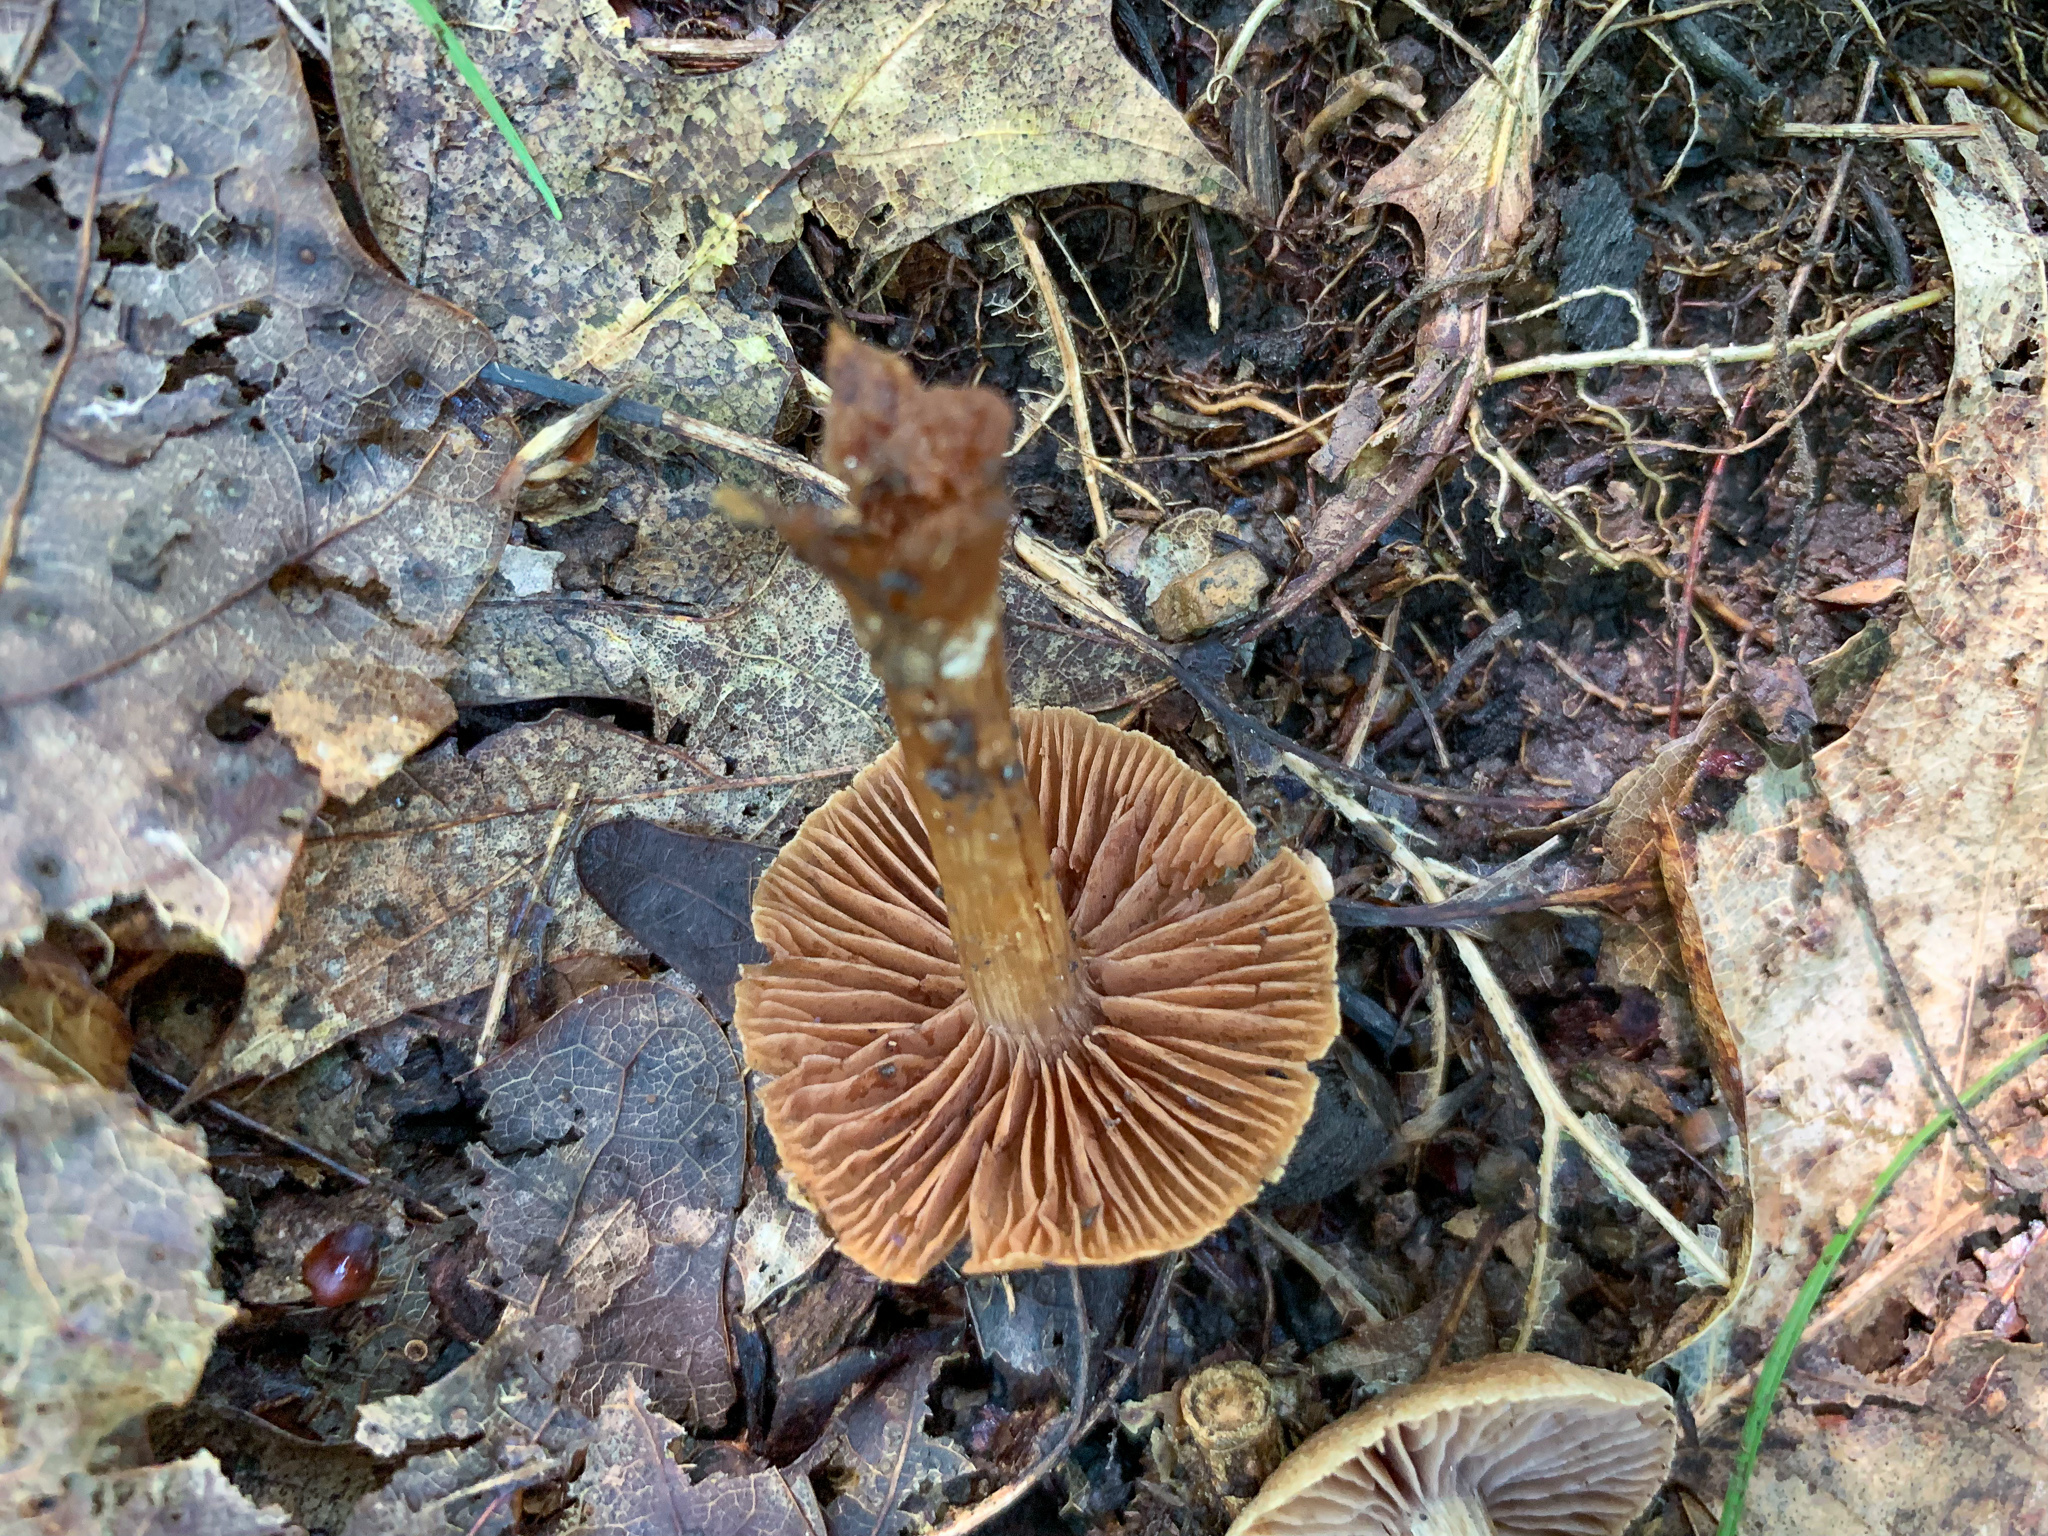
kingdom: Fungi
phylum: Basidiomycota
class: Agaricomycetes
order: Agaricales
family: Cortinariaceae
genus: Cortinarius
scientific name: Cortinarius
